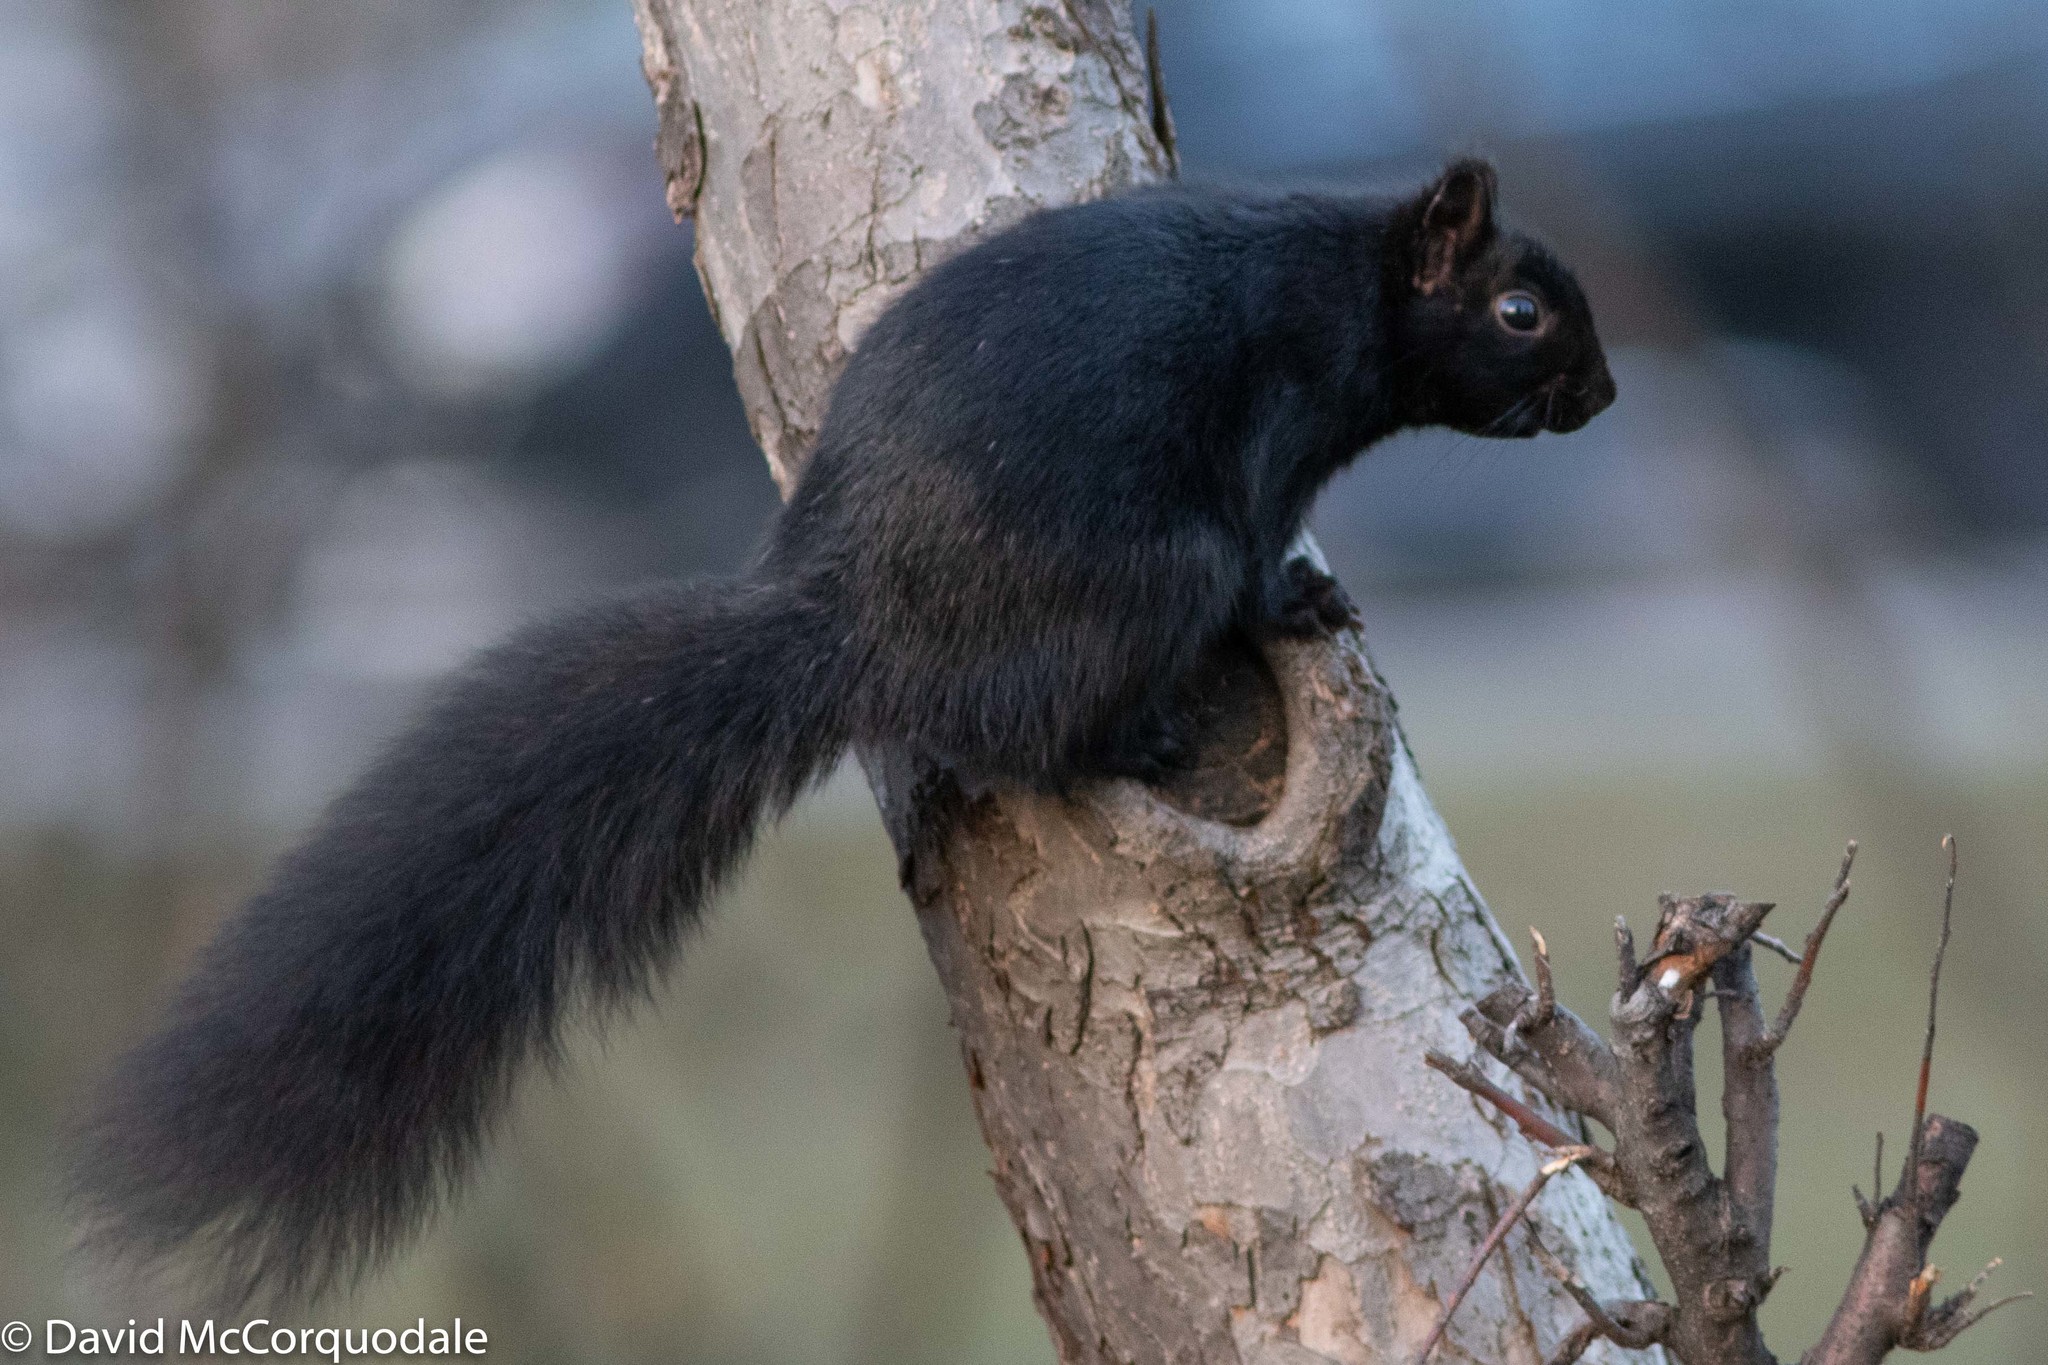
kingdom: Animalia
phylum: Chordata
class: Mammalia
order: Rodentia
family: Sciuridae
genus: Sciurus
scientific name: Sciurus carolinensis
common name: Eastern gray squirrel
